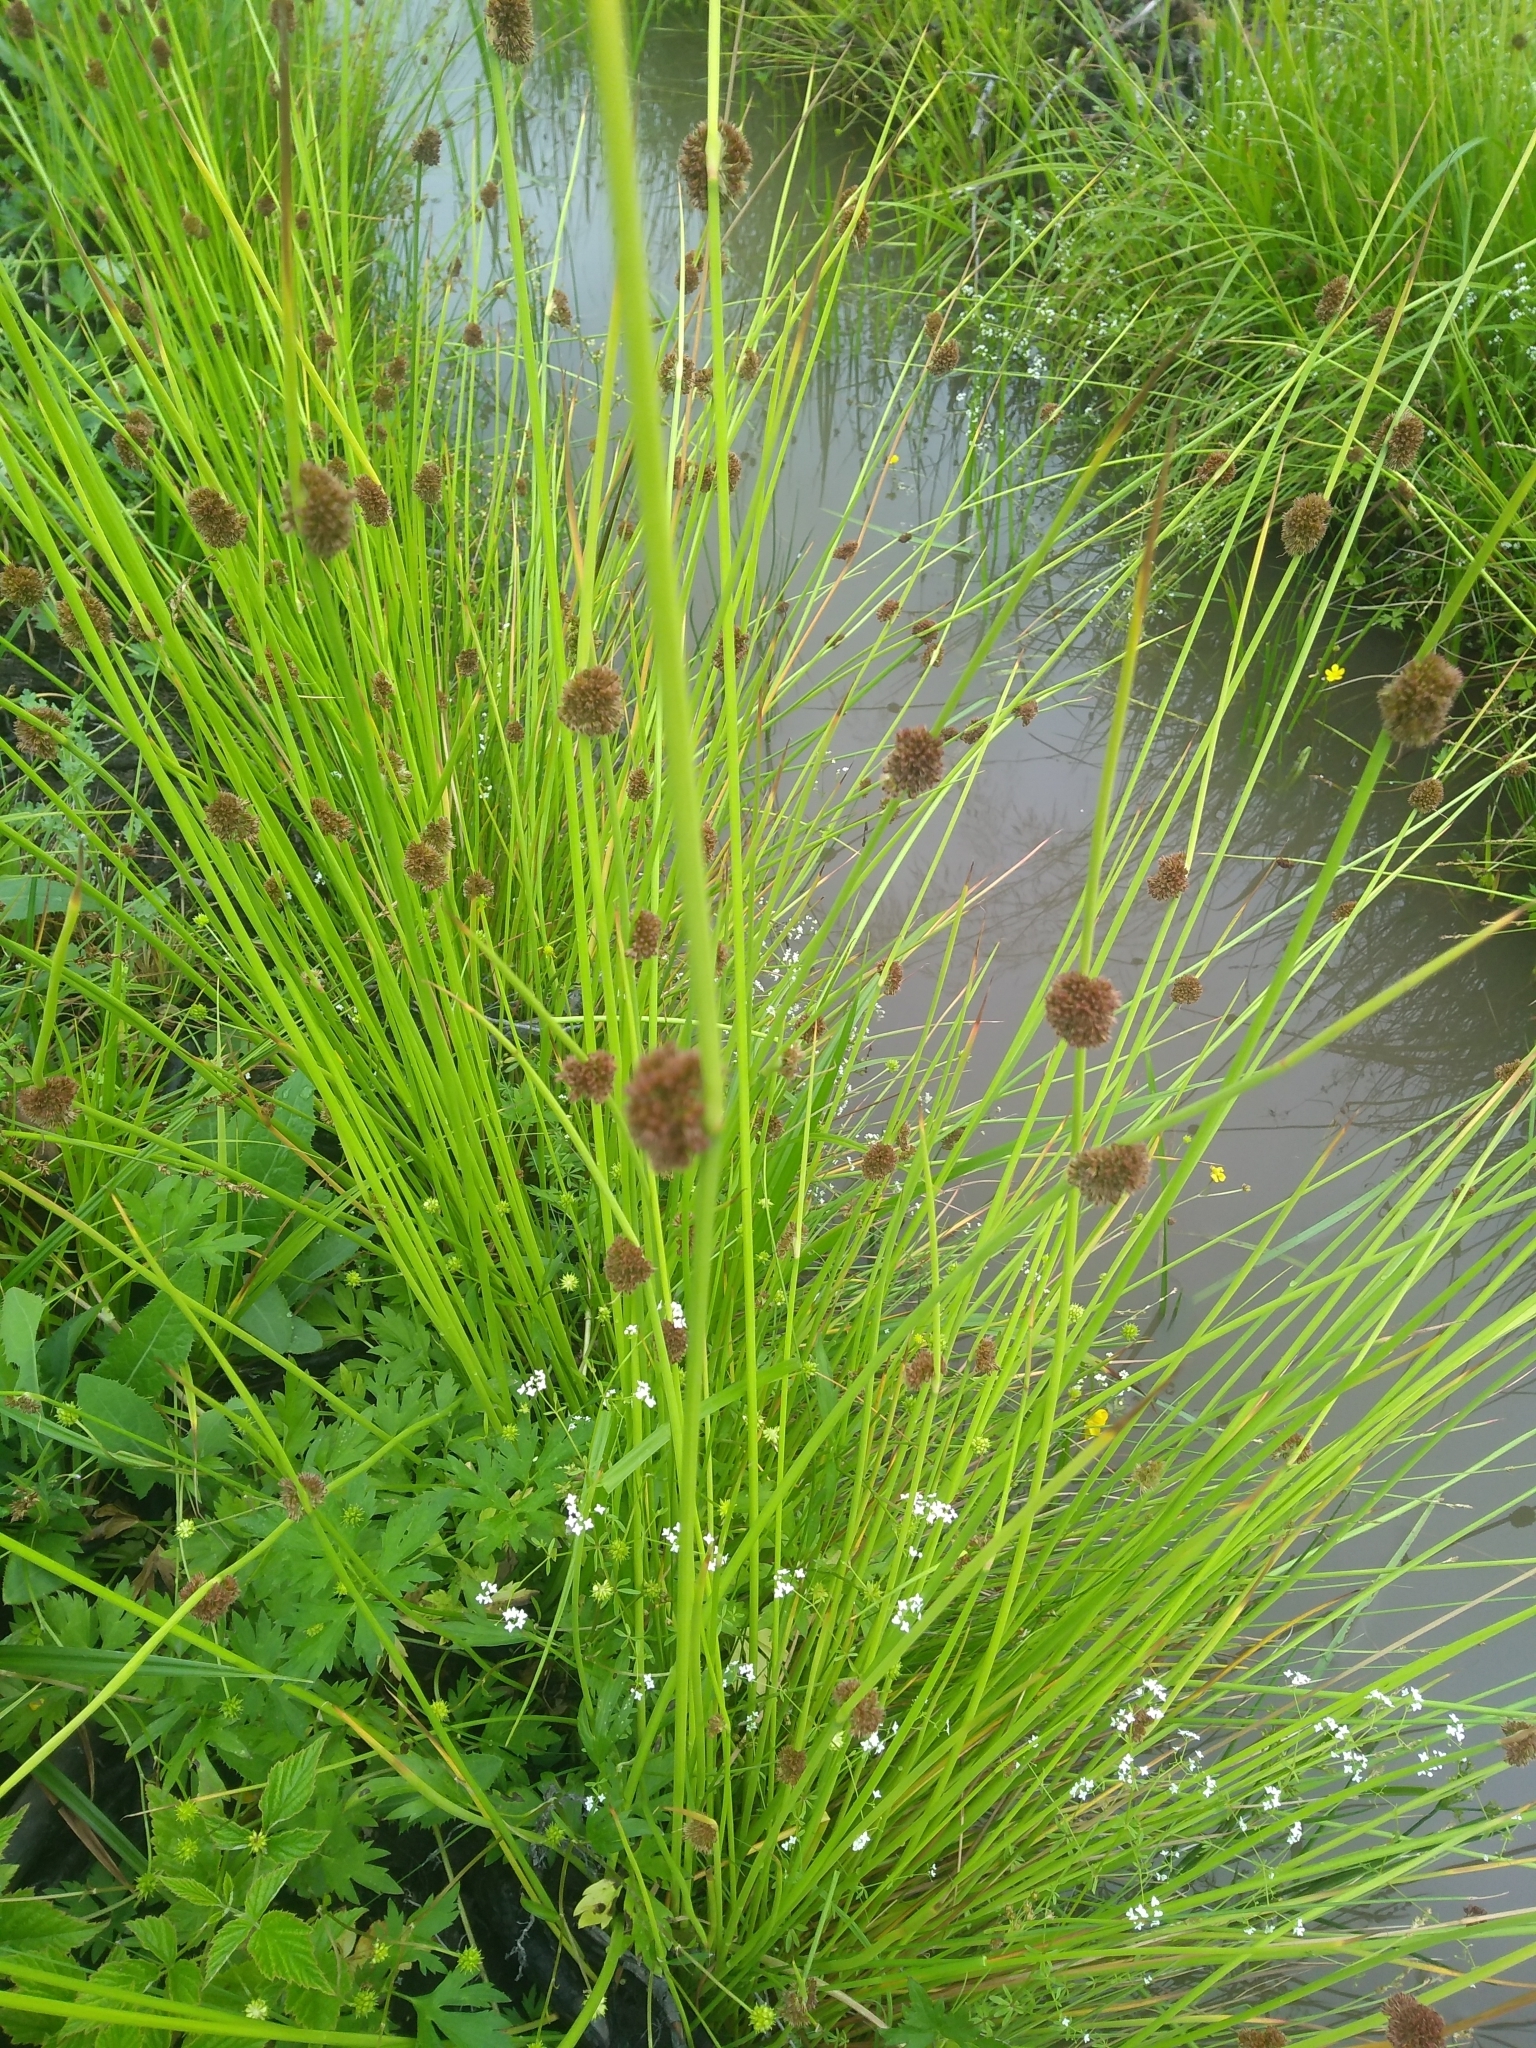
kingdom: Plantae
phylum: Tracheophyta
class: Liliopsida
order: Poales
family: Juncaceae
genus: Juncus
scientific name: Juncus effusus
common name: Soft rush
